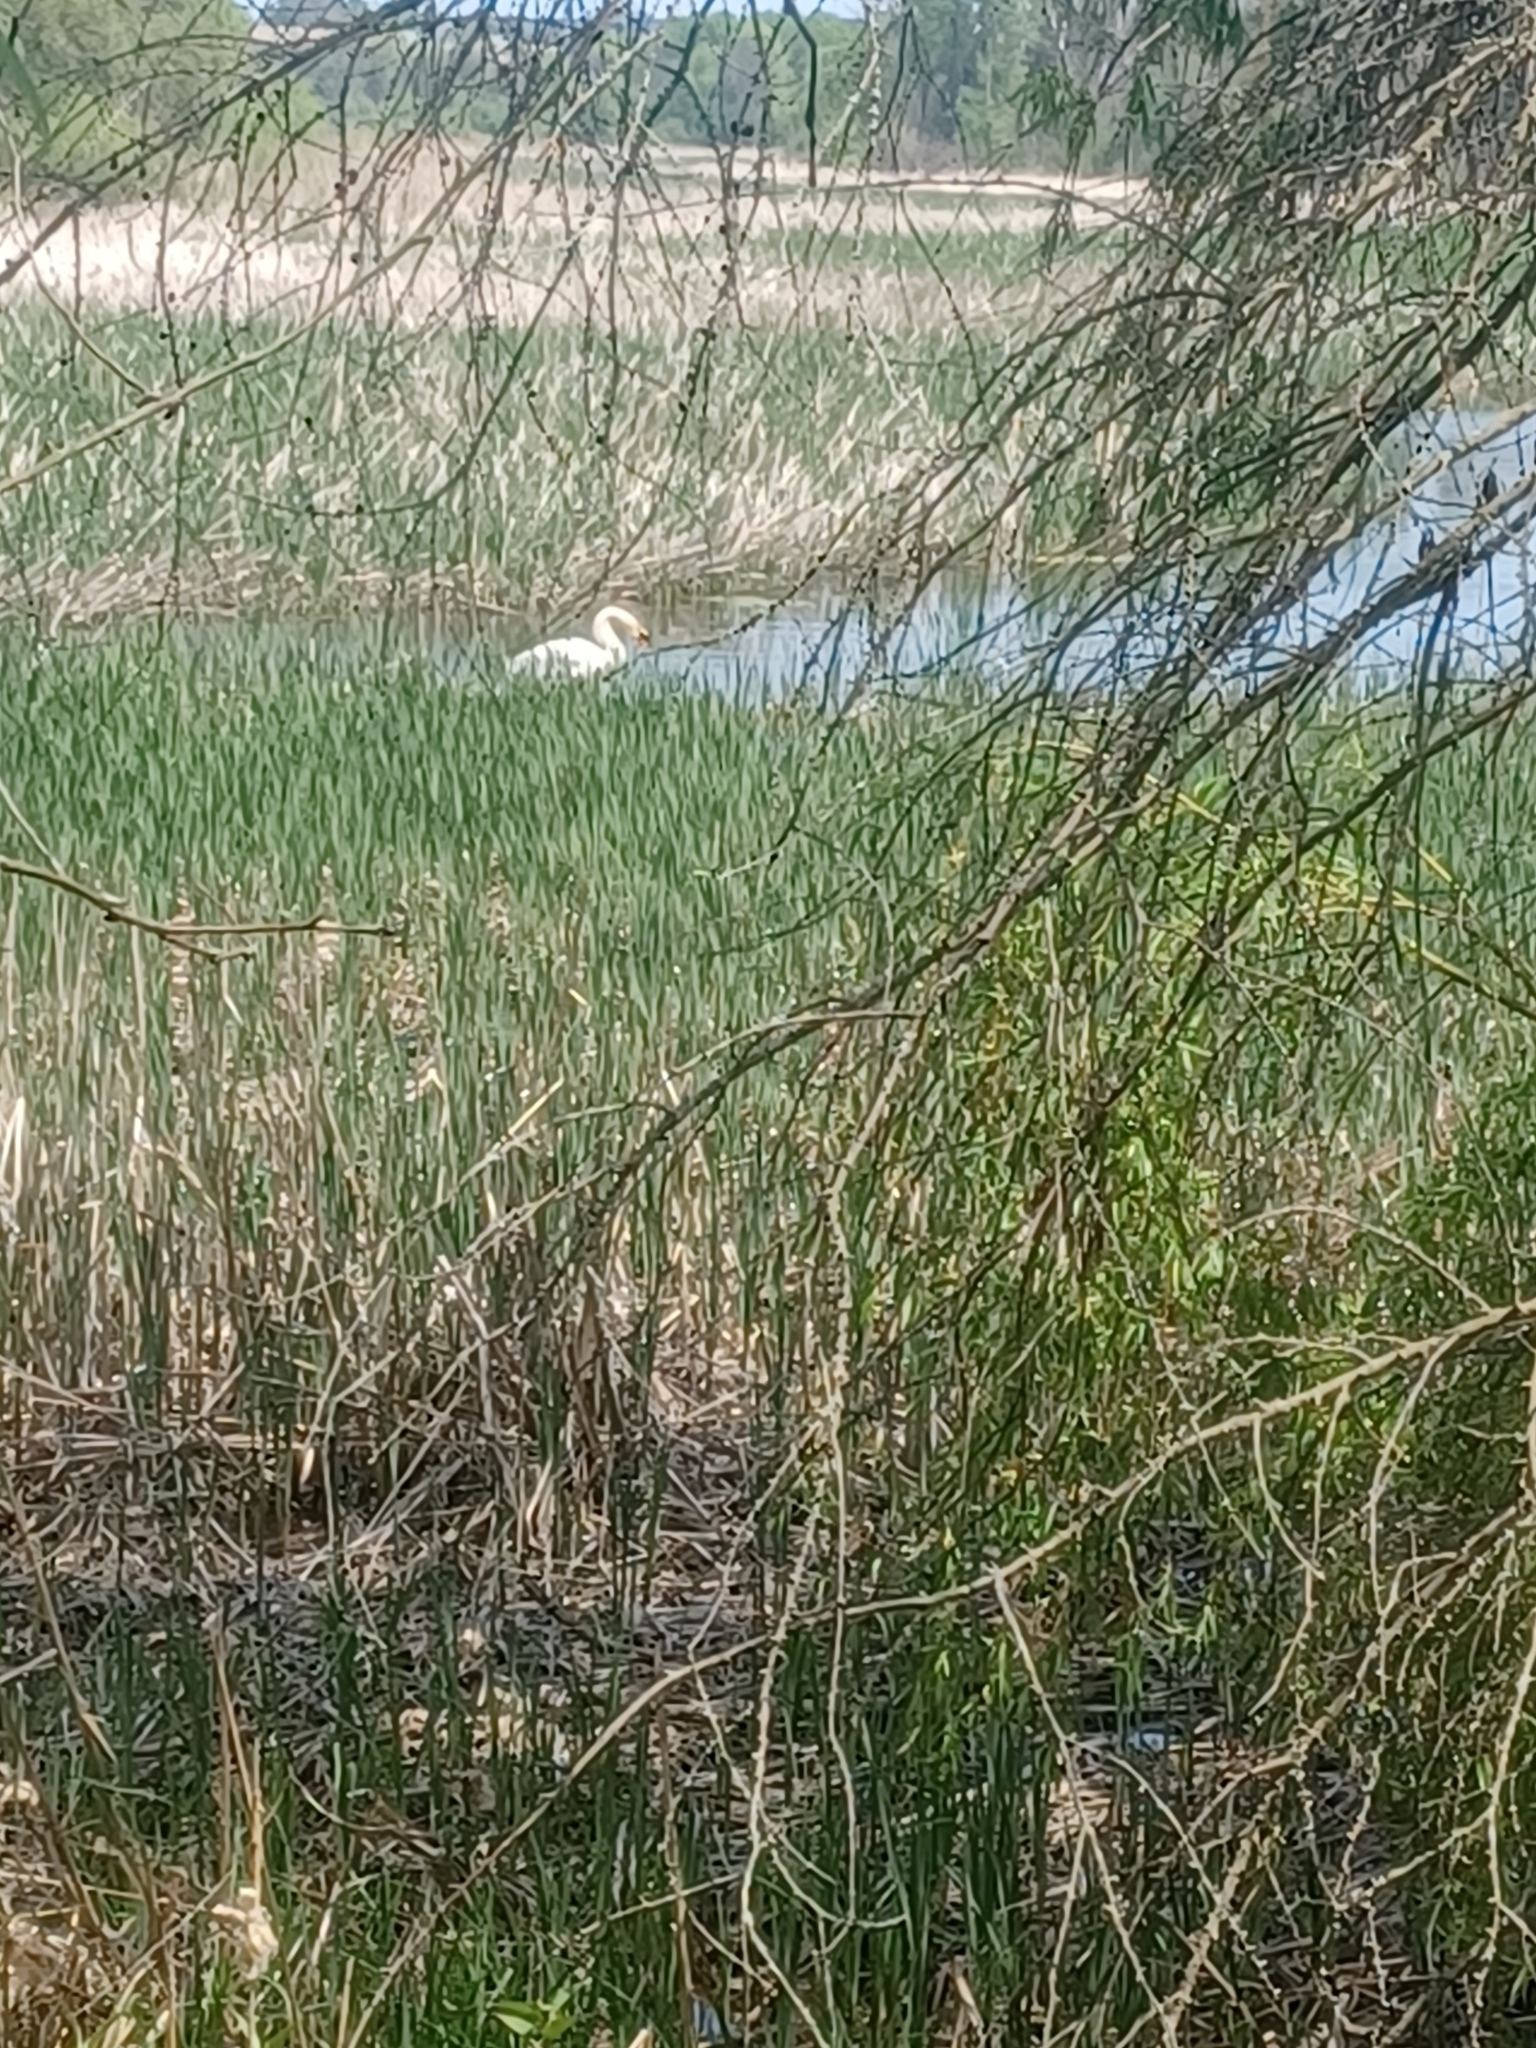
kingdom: Animalia
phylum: Chordata
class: Aves
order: Anseriformes
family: Anatidae
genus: Cygnus
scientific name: Cygnus olor
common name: Mute swan
